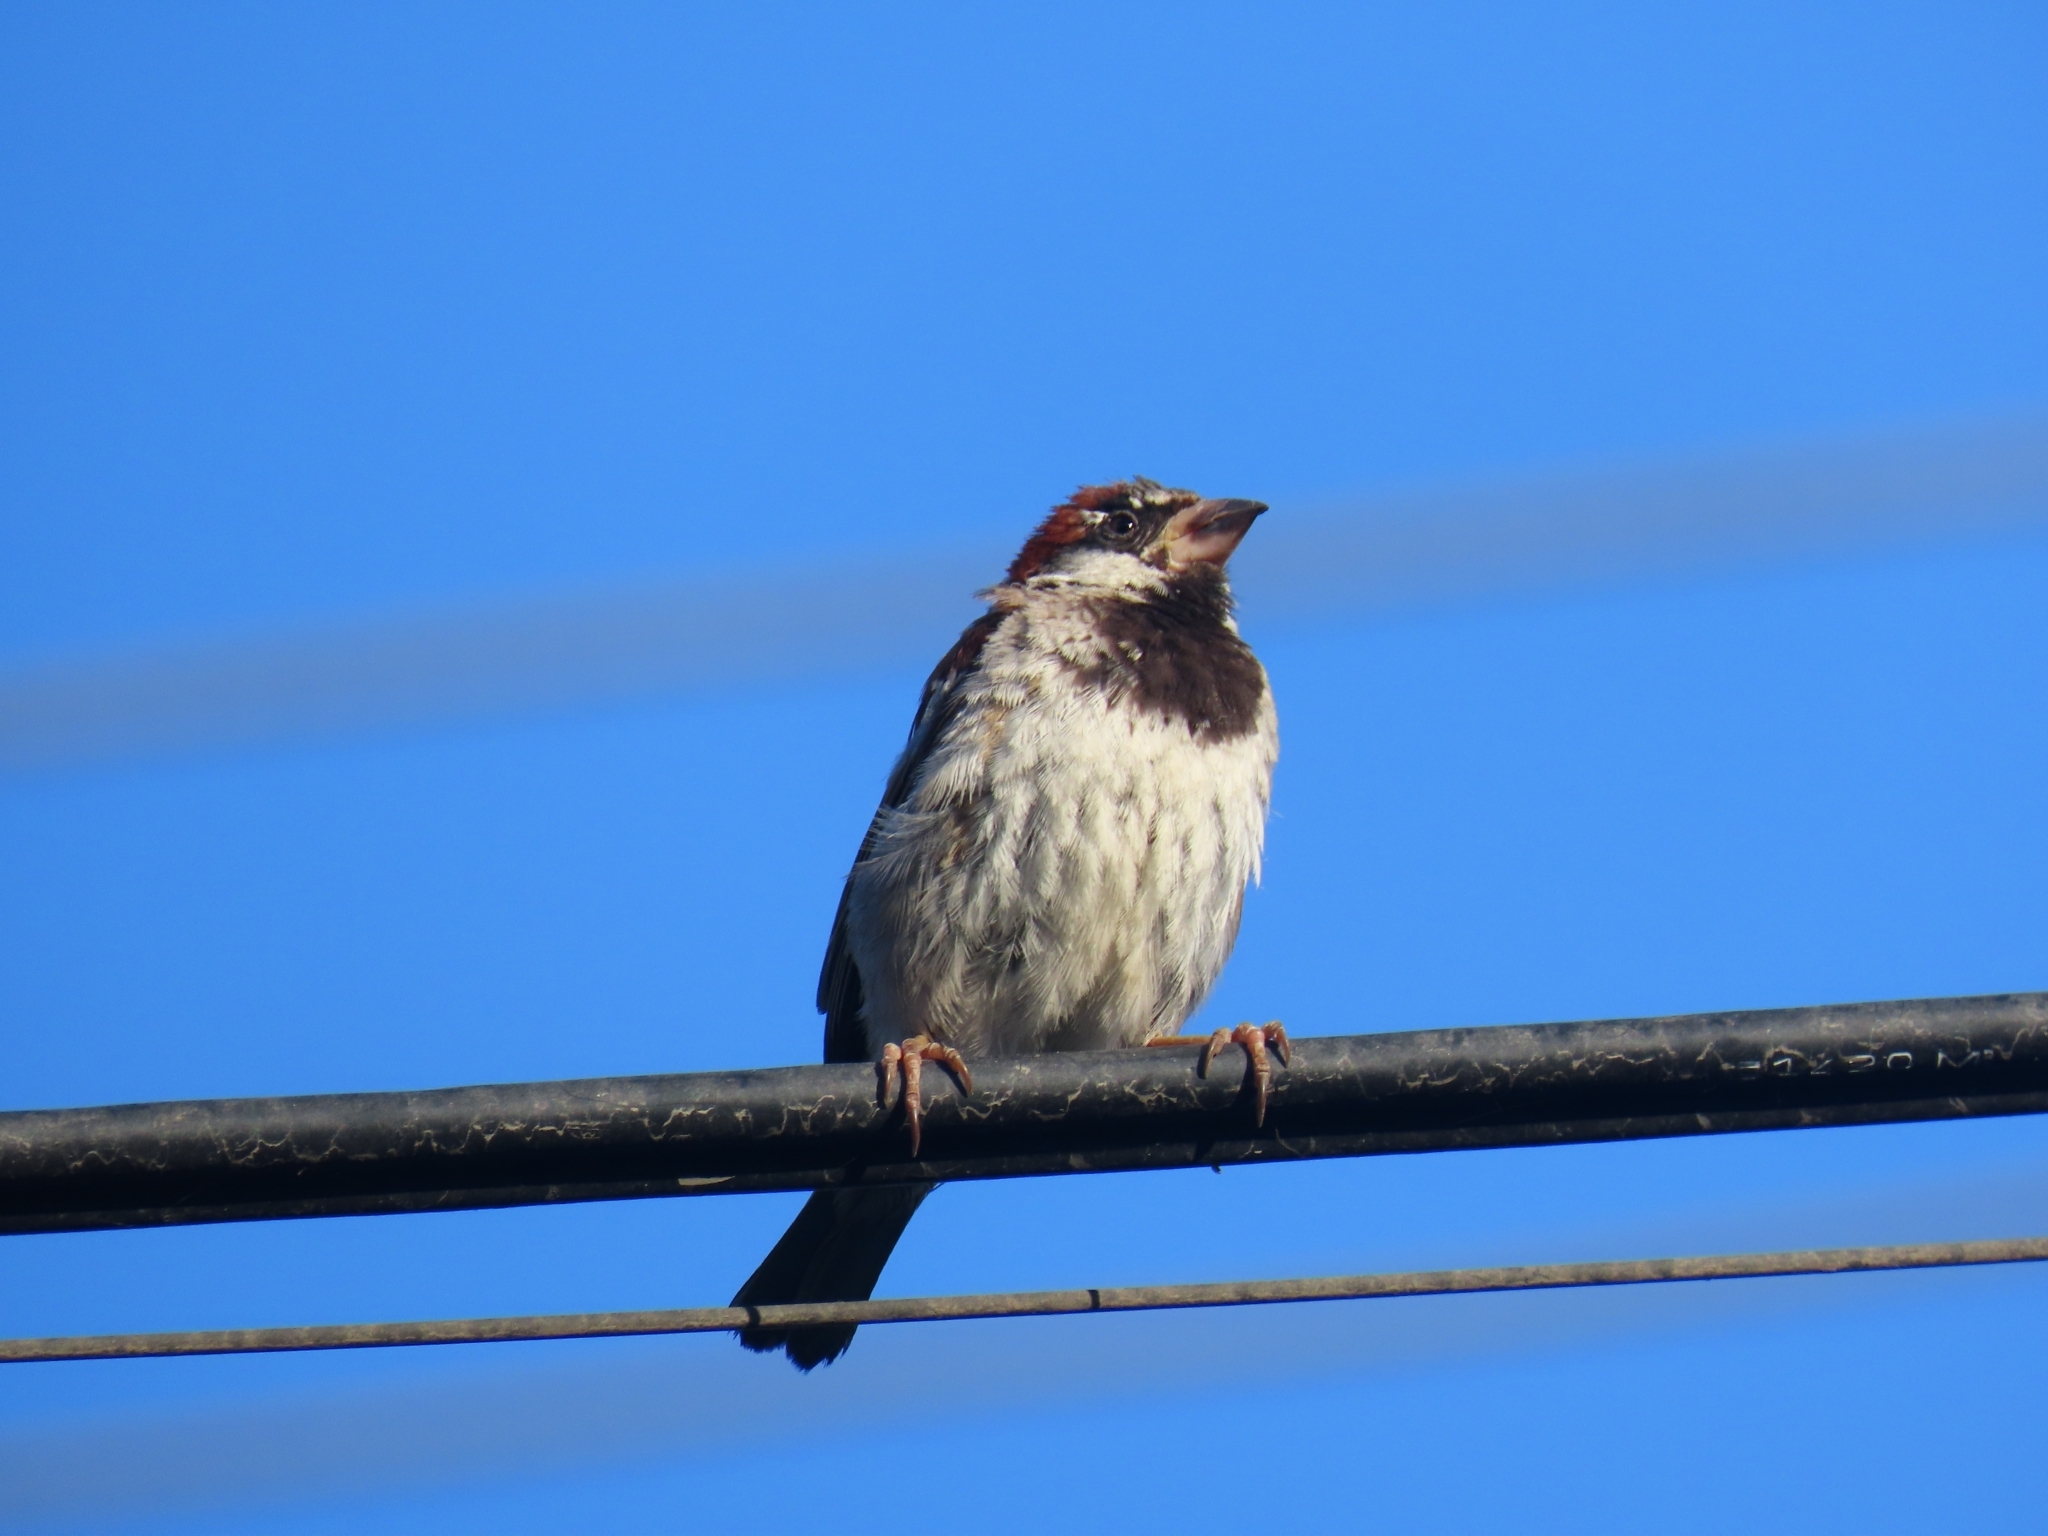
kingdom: Animalia
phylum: Chordata
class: Aves
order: Passeriformes
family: Passeridae
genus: Passer
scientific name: Passer domesticus
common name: House sparrow
